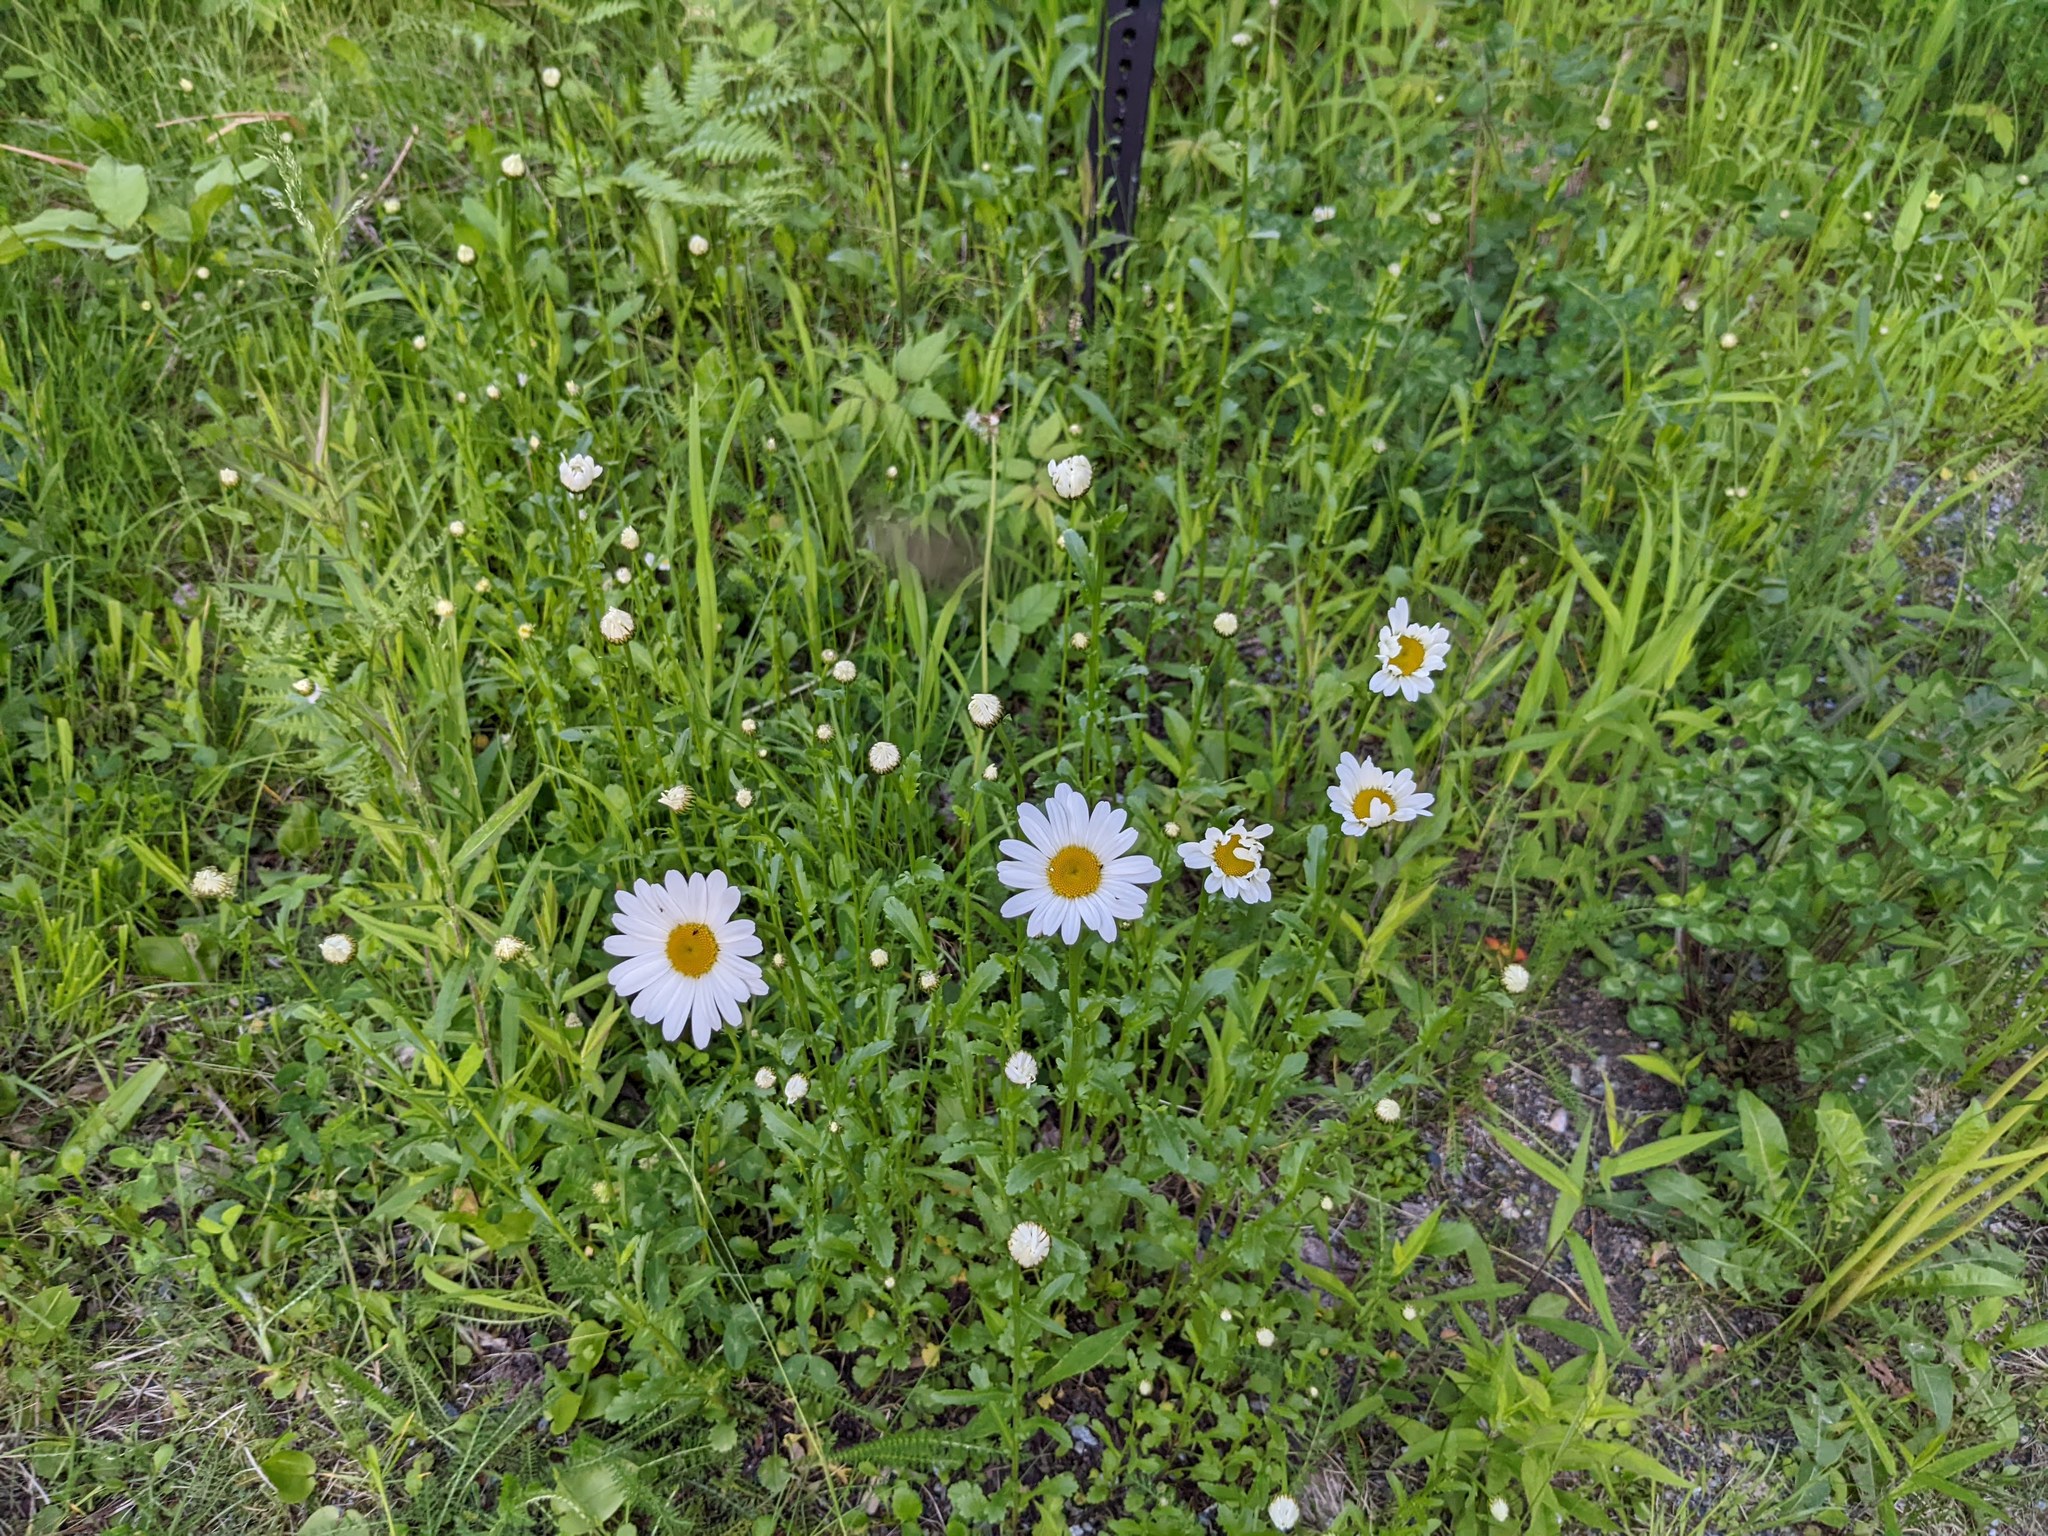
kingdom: Plantae
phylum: Tracheophyta
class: Magnoliopsida
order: Asterales
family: Asteraceae
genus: Leucanthemum
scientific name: Leucanthemum vulgare
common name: Oxeye daisy
